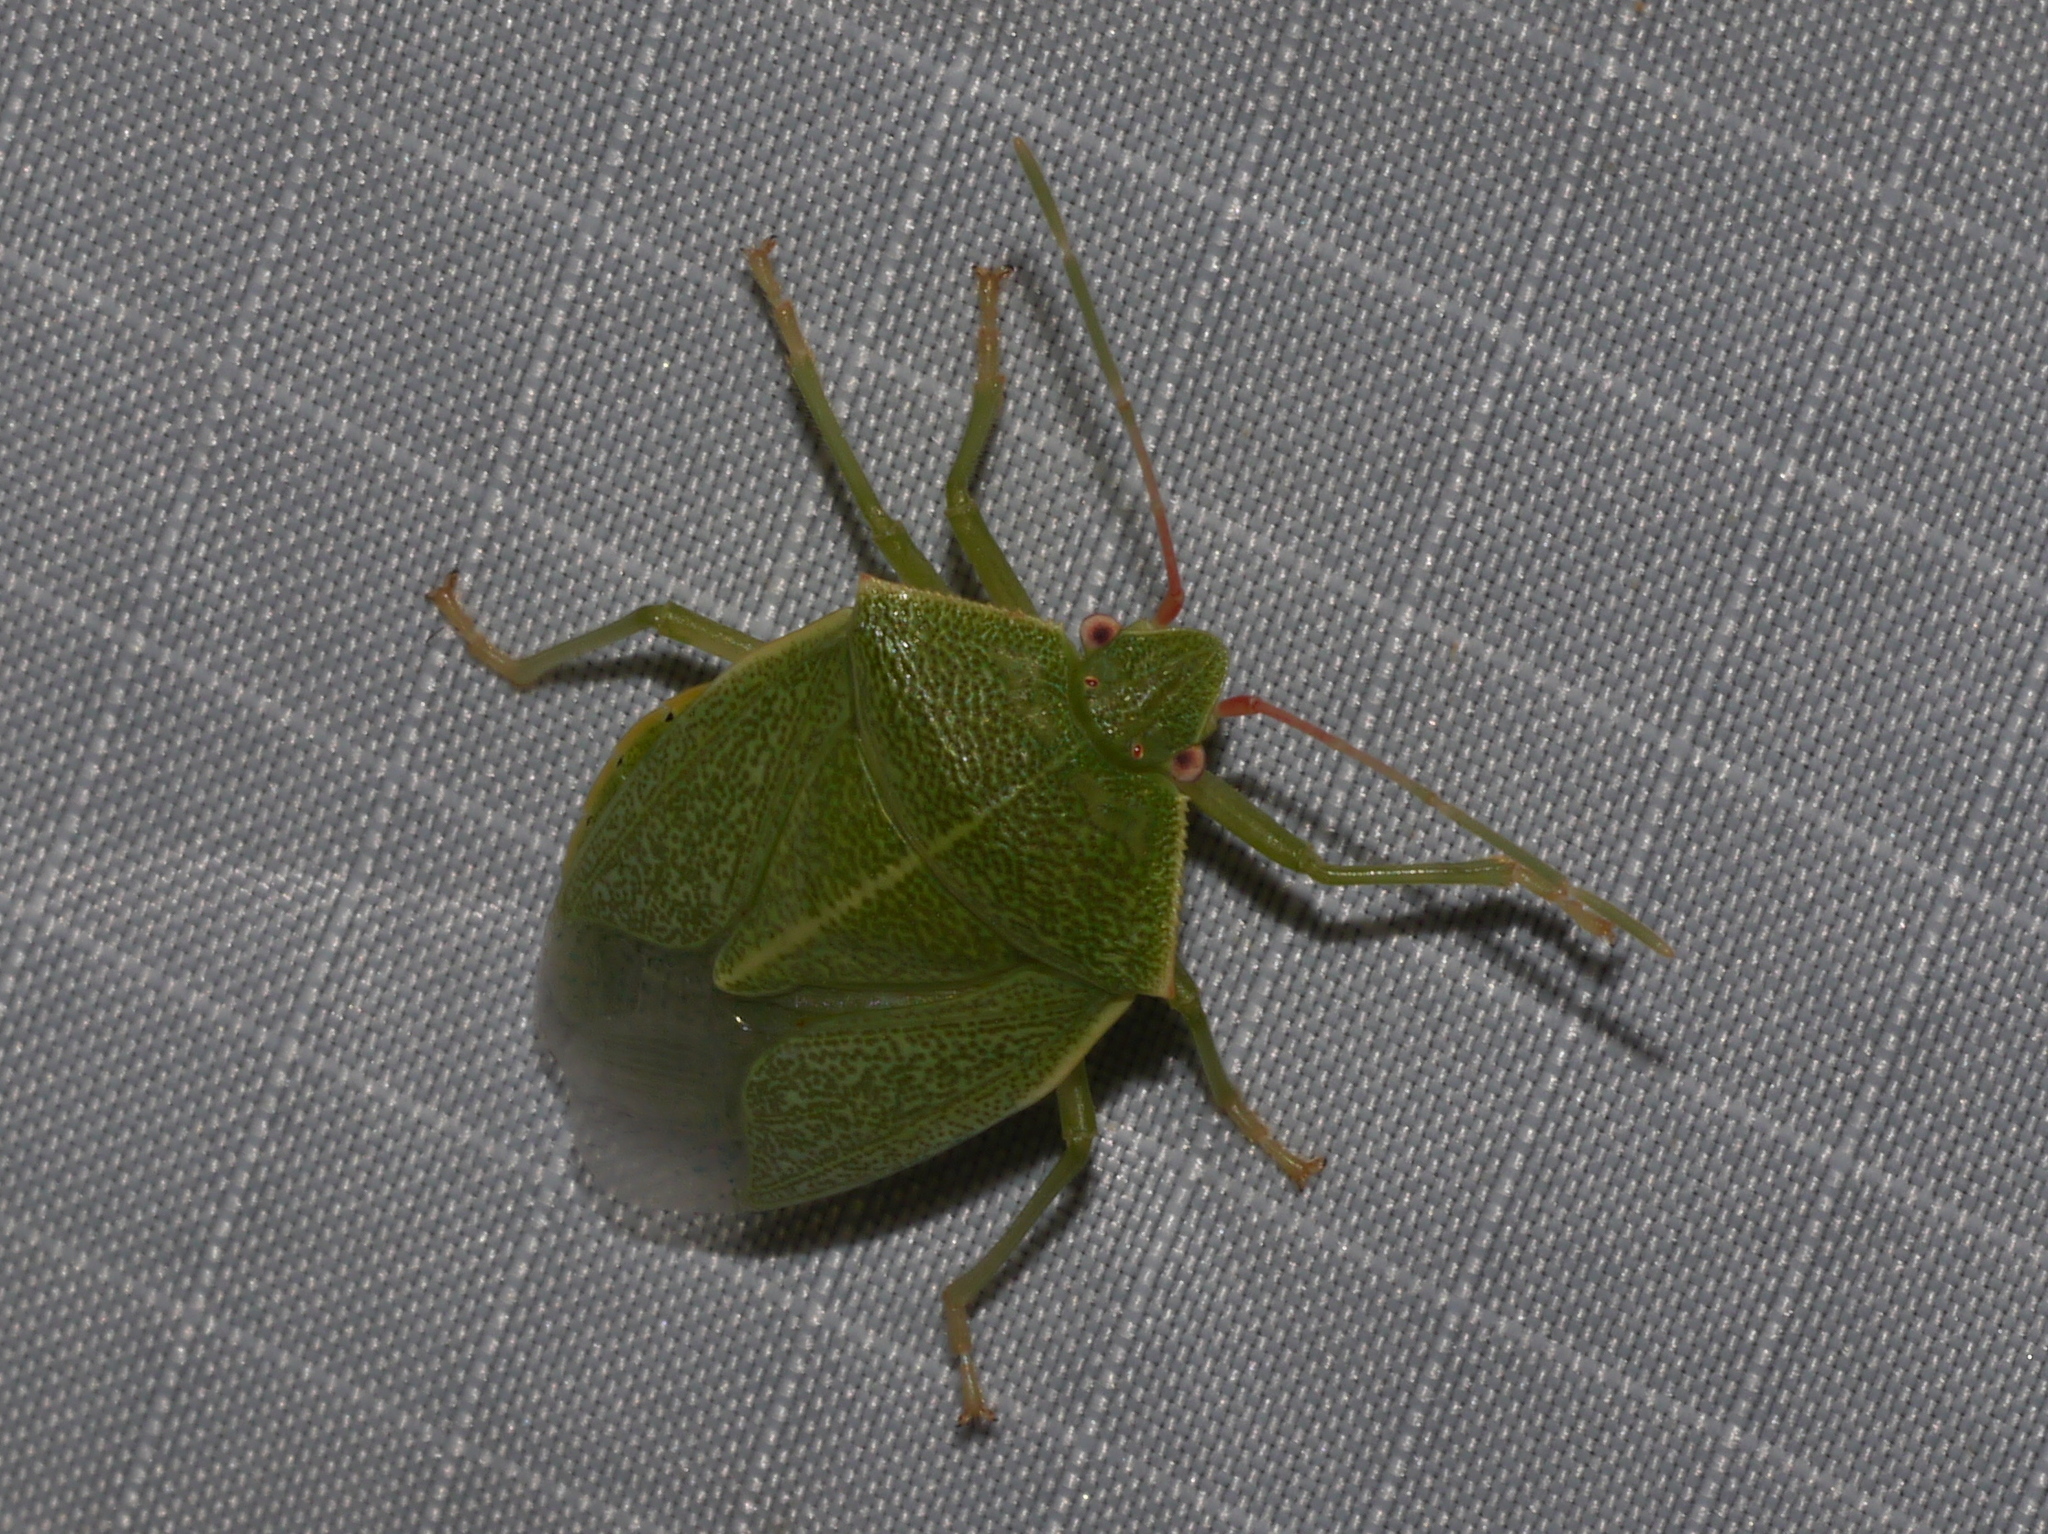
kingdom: Animalia
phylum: Arthropoda
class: Insecta
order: Hemiptera
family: Pentatomidae
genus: Chlorocoris
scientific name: Chlorocoris hebetatus
